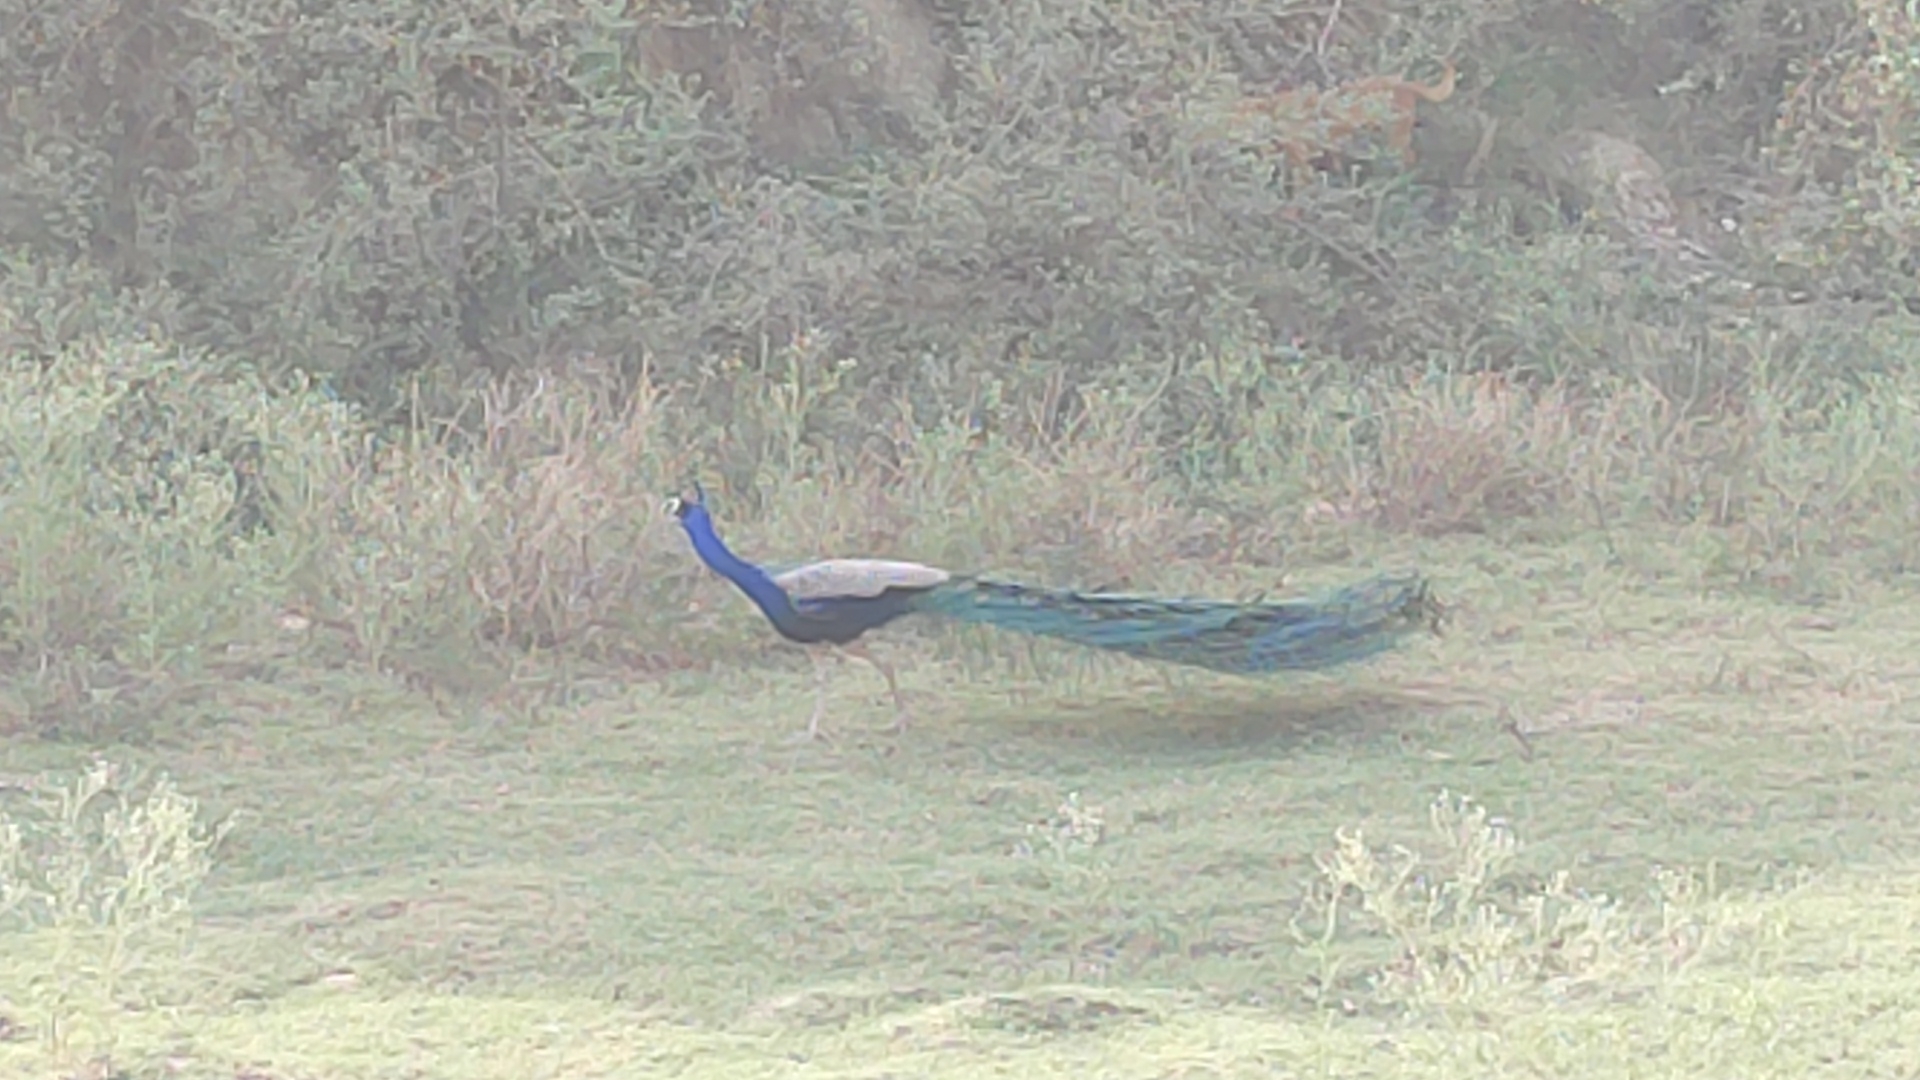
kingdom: Animalia
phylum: Chordata
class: Aves
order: Galliformes
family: Phasianidae
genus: Pavo
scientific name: Pavo cristatus
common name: Indian peafowl
